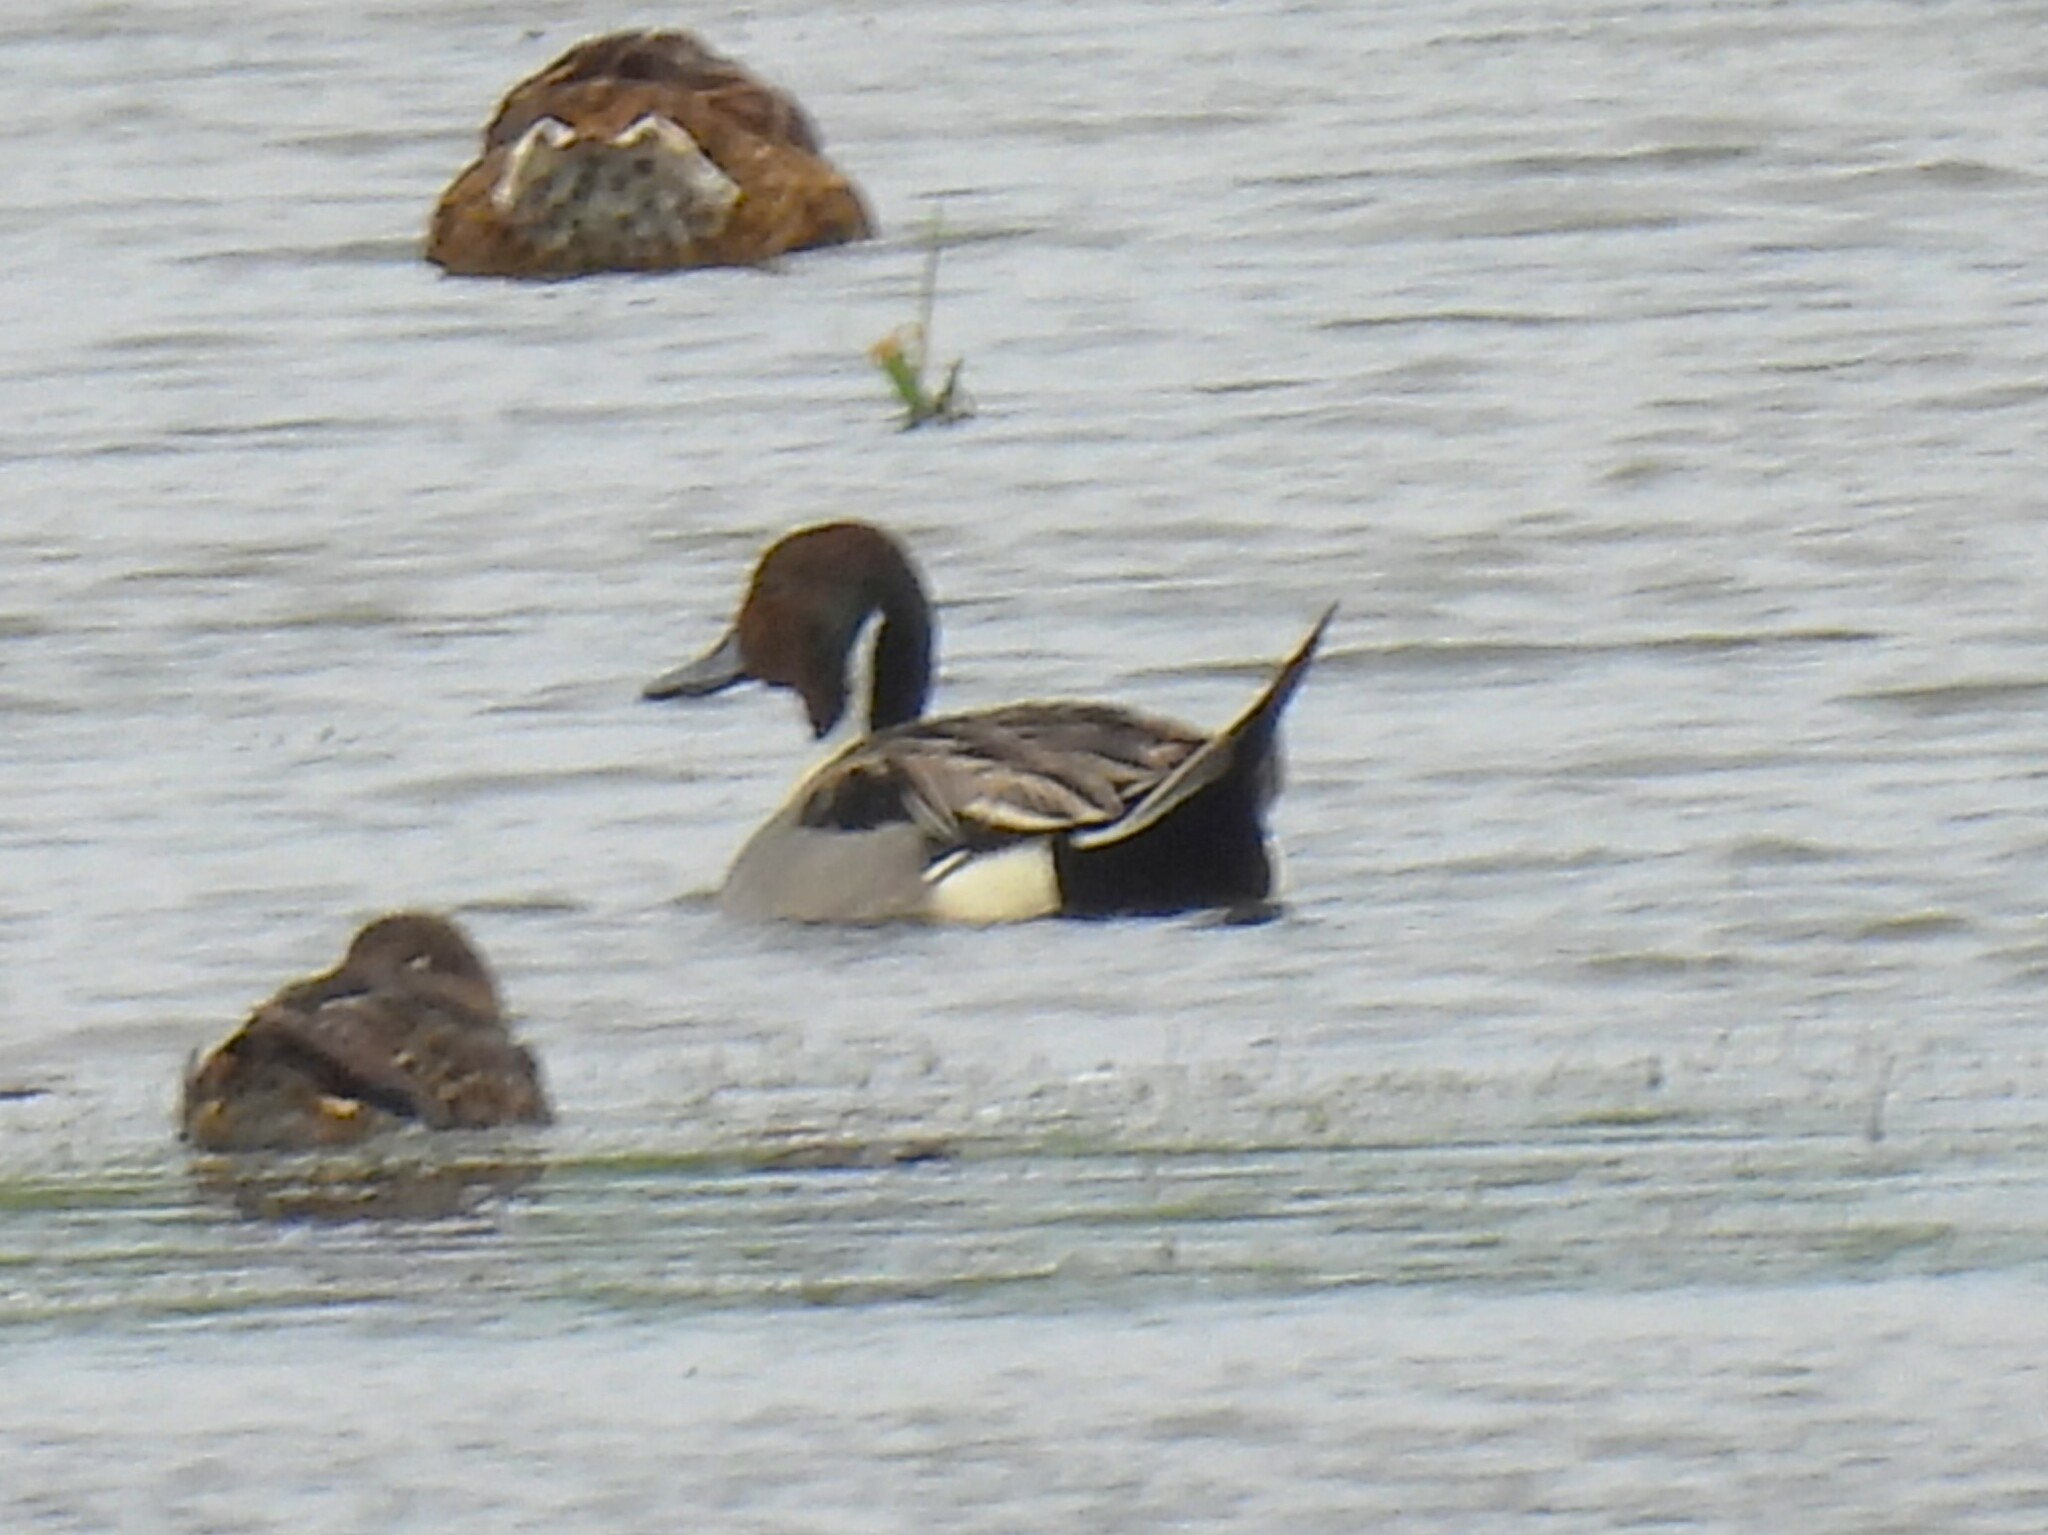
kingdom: Animalia
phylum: Chordata
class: Aves
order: Anseriformes
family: Anatidae
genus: Anas
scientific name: Anas acuta
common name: Northern pintail
